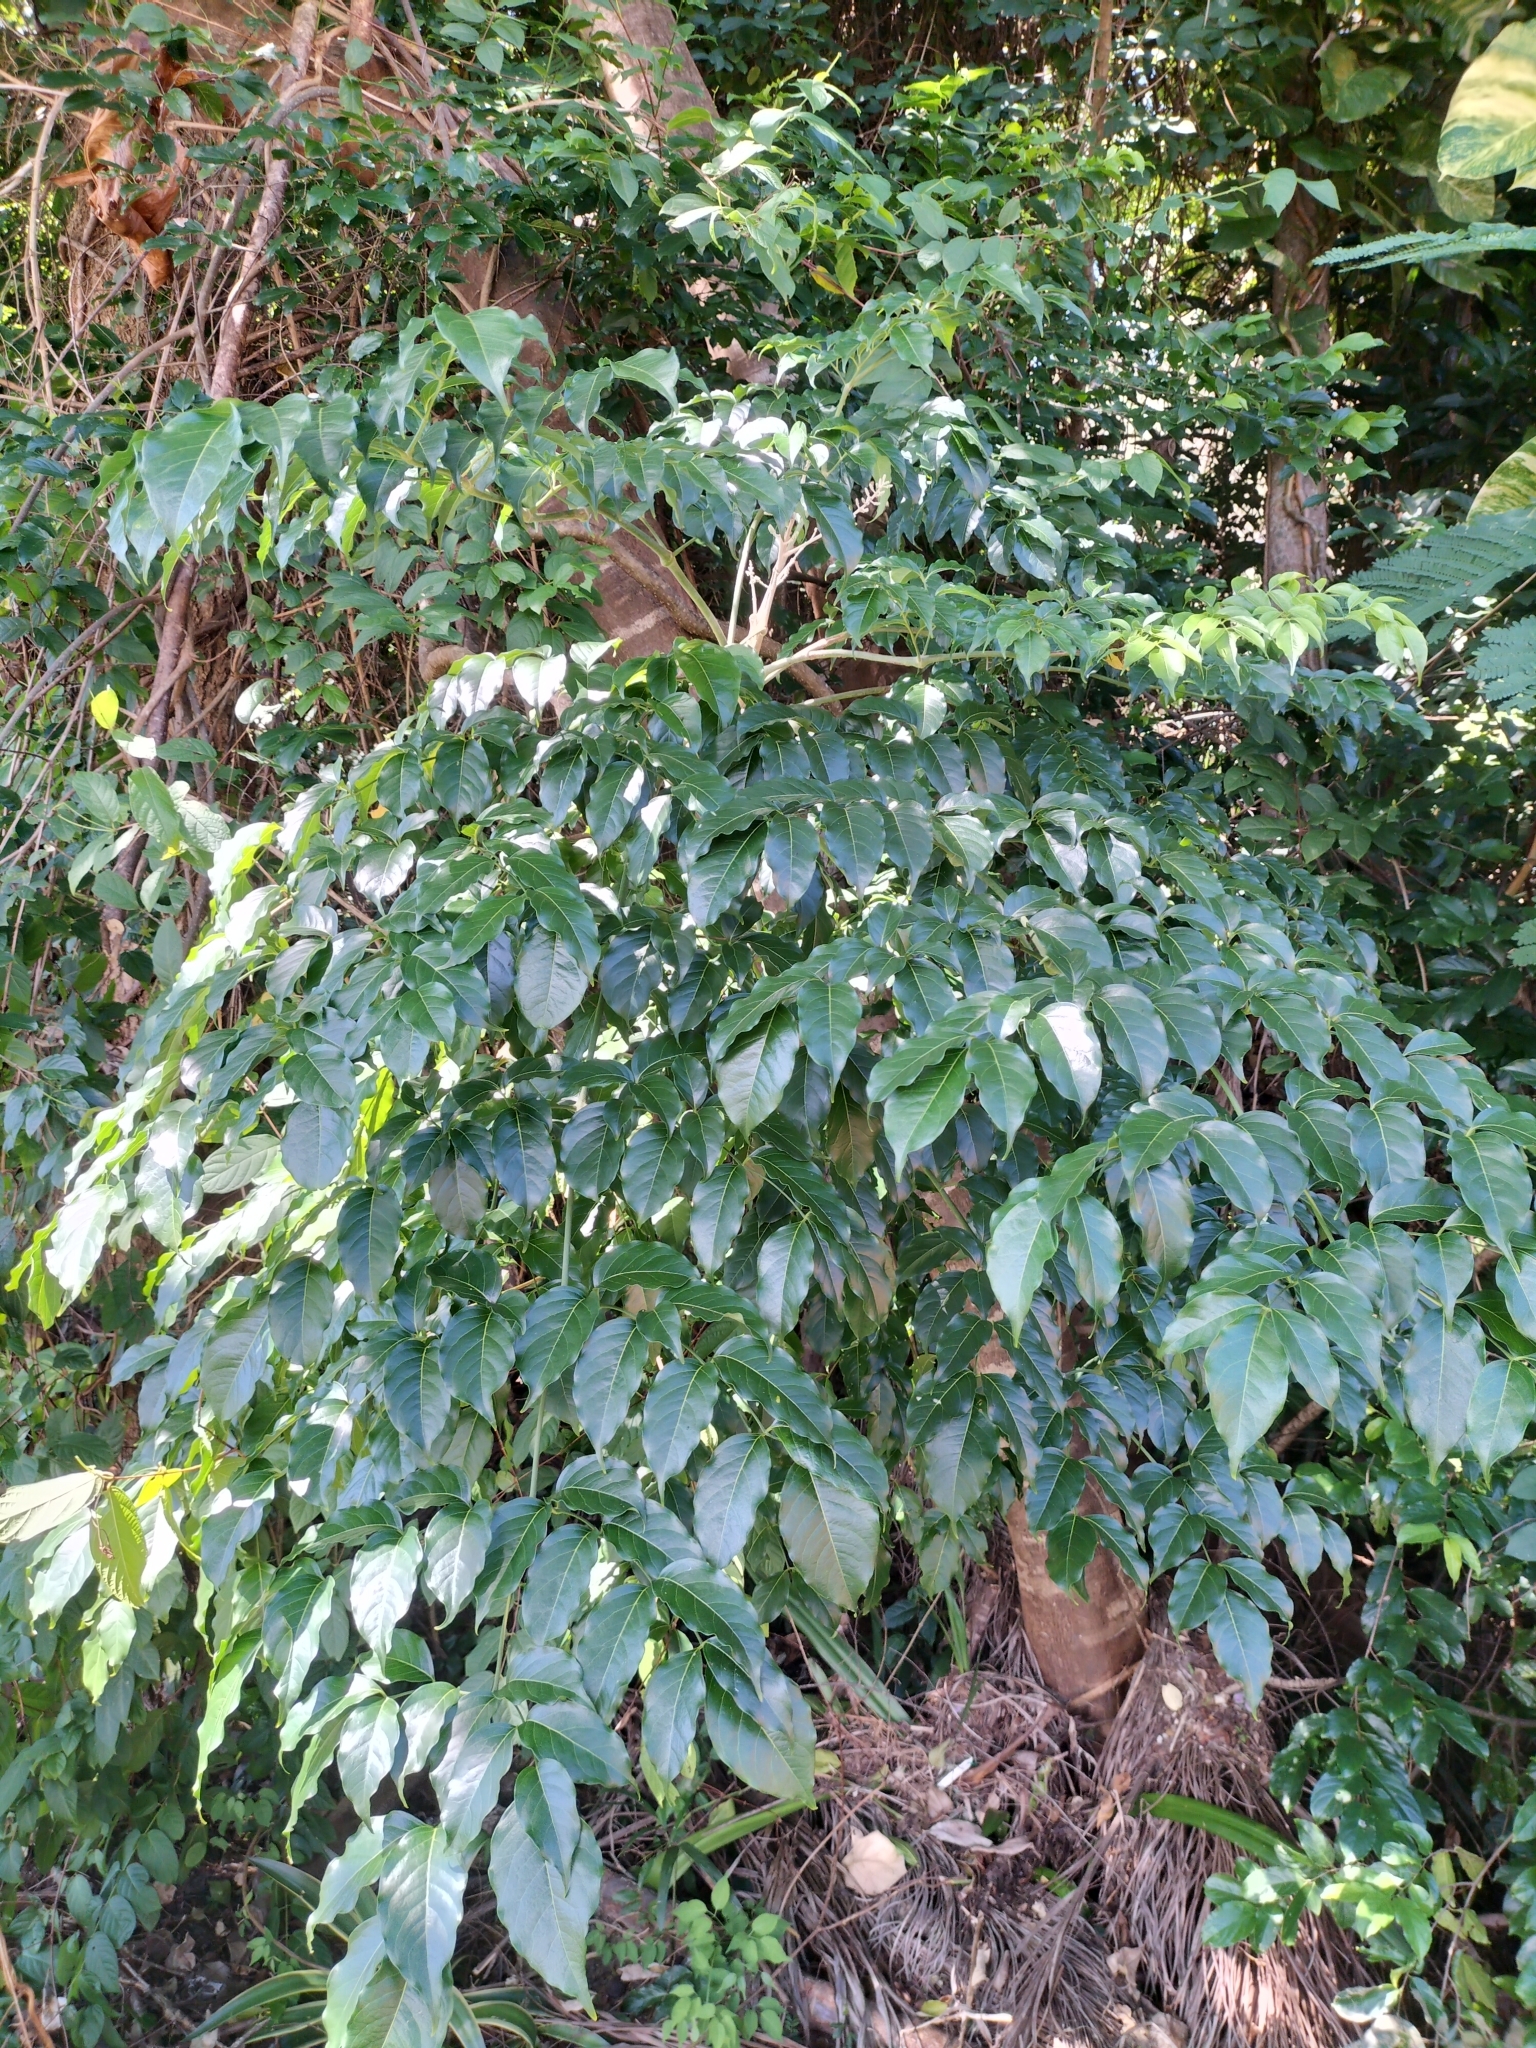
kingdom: Plantae
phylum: Tracheophyta
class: Magnoliopsida
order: Apiales
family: Araliaceae
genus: Polyscias
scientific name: Polyscias elegans
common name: Mowbulan whitewood
